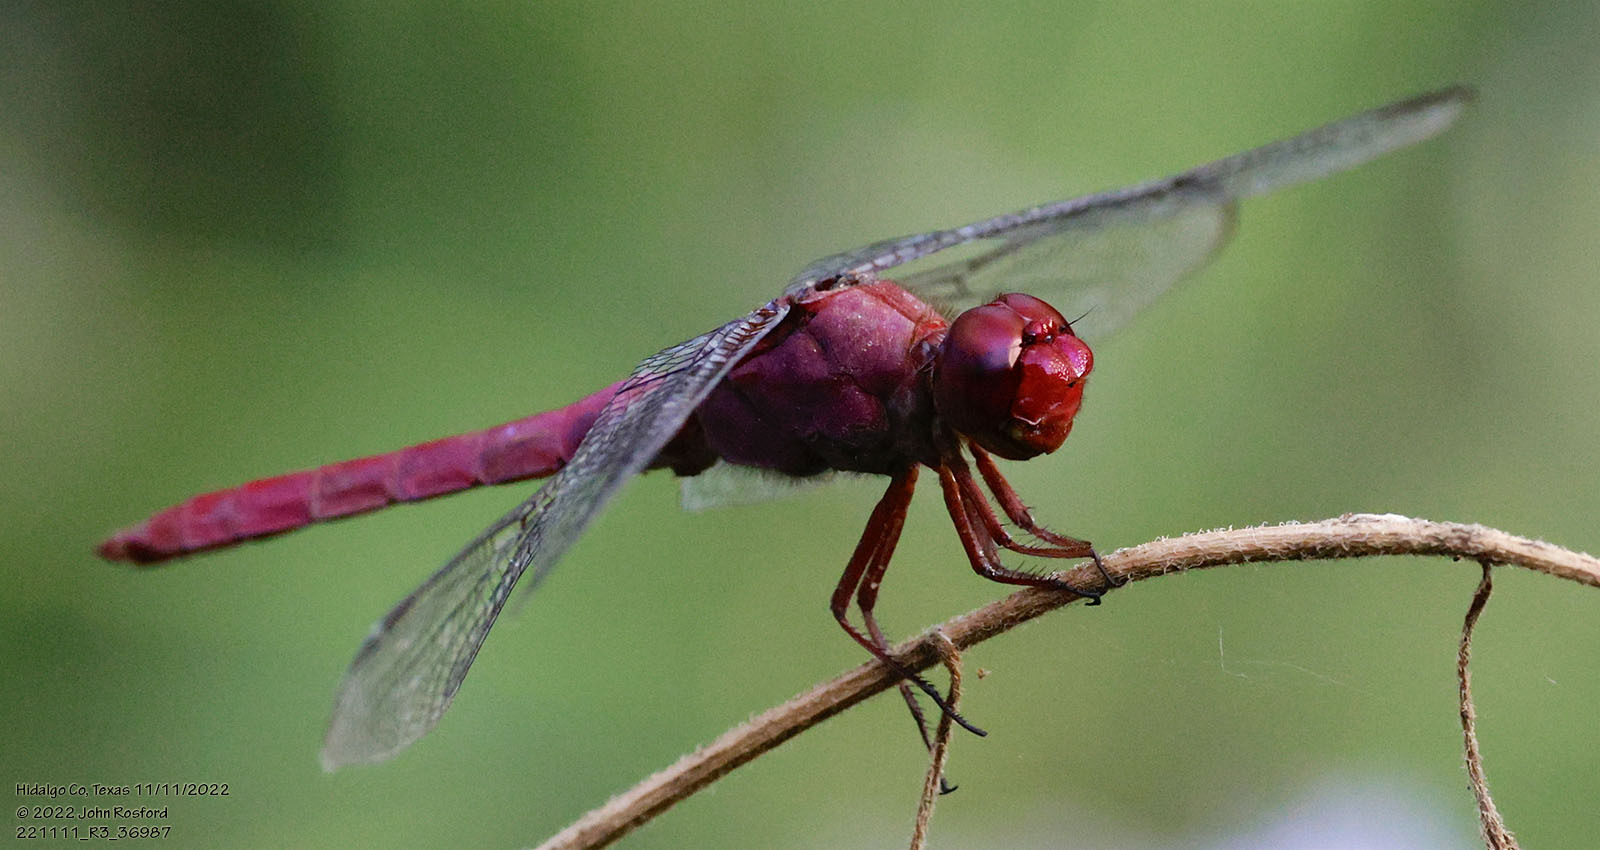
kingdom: Animalia
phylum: Arthropoda
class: Insecta
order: Odonata
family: Libellulidae
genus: Orthemis
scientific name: Orthemis discolor
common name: Carmine skimmer
